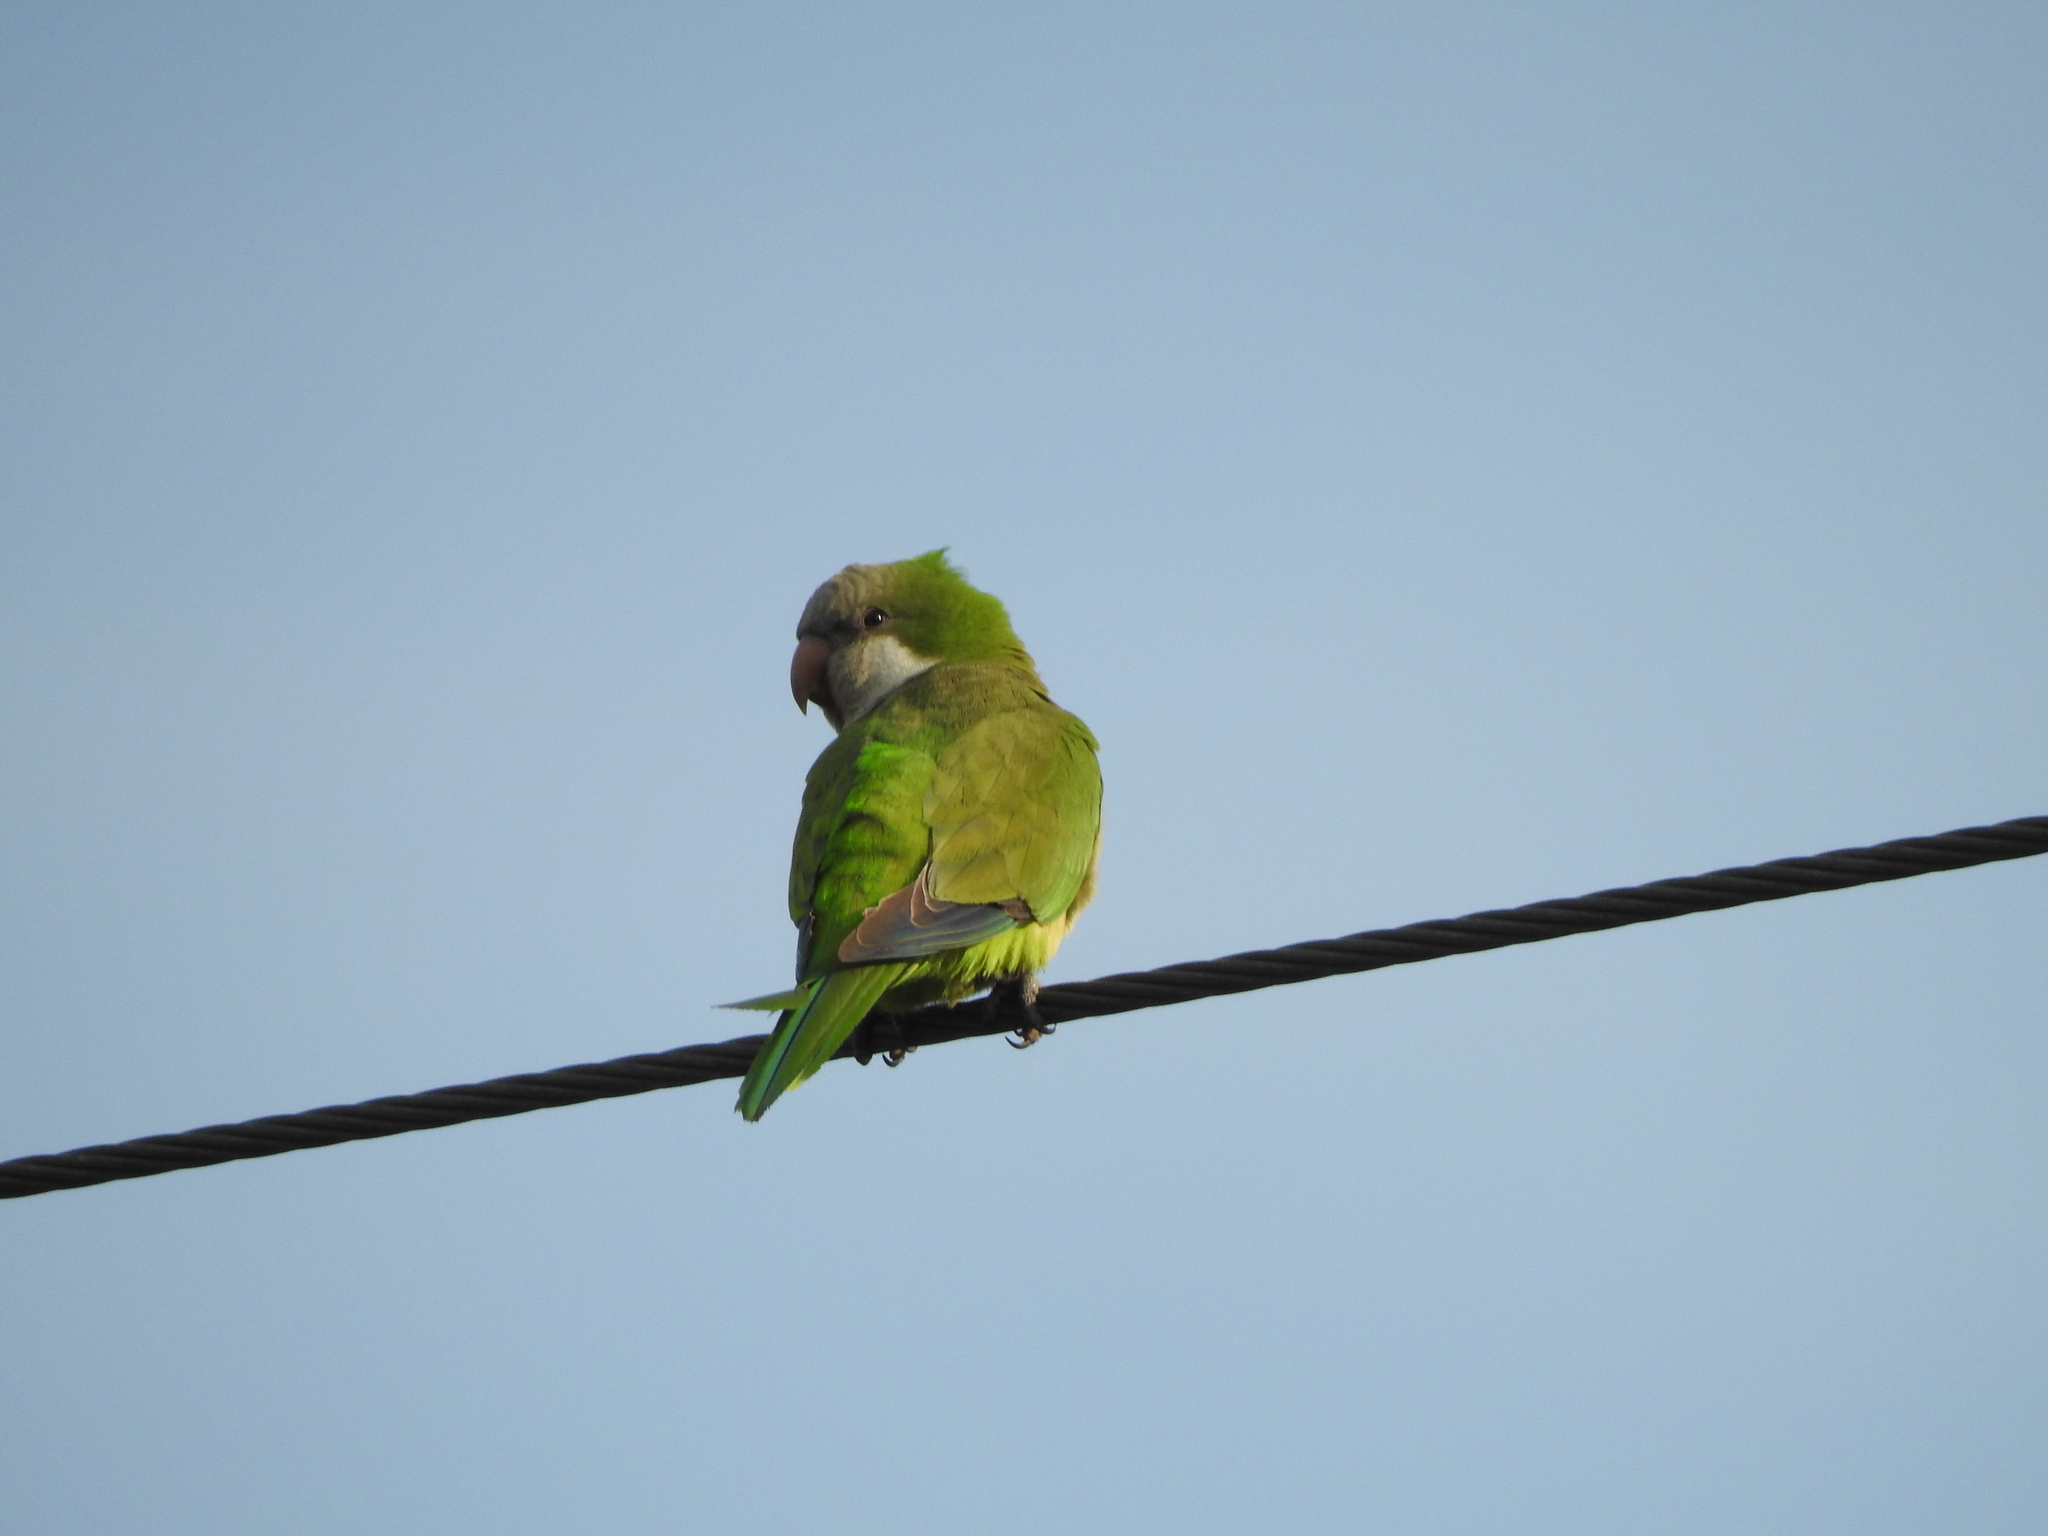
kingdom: Animalia
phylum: Chordata
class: Aves
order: Psittaciformes
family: Psittacidae
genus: Myiopsitta
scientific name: Myiopsitta monachus
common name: Monk parakeet
